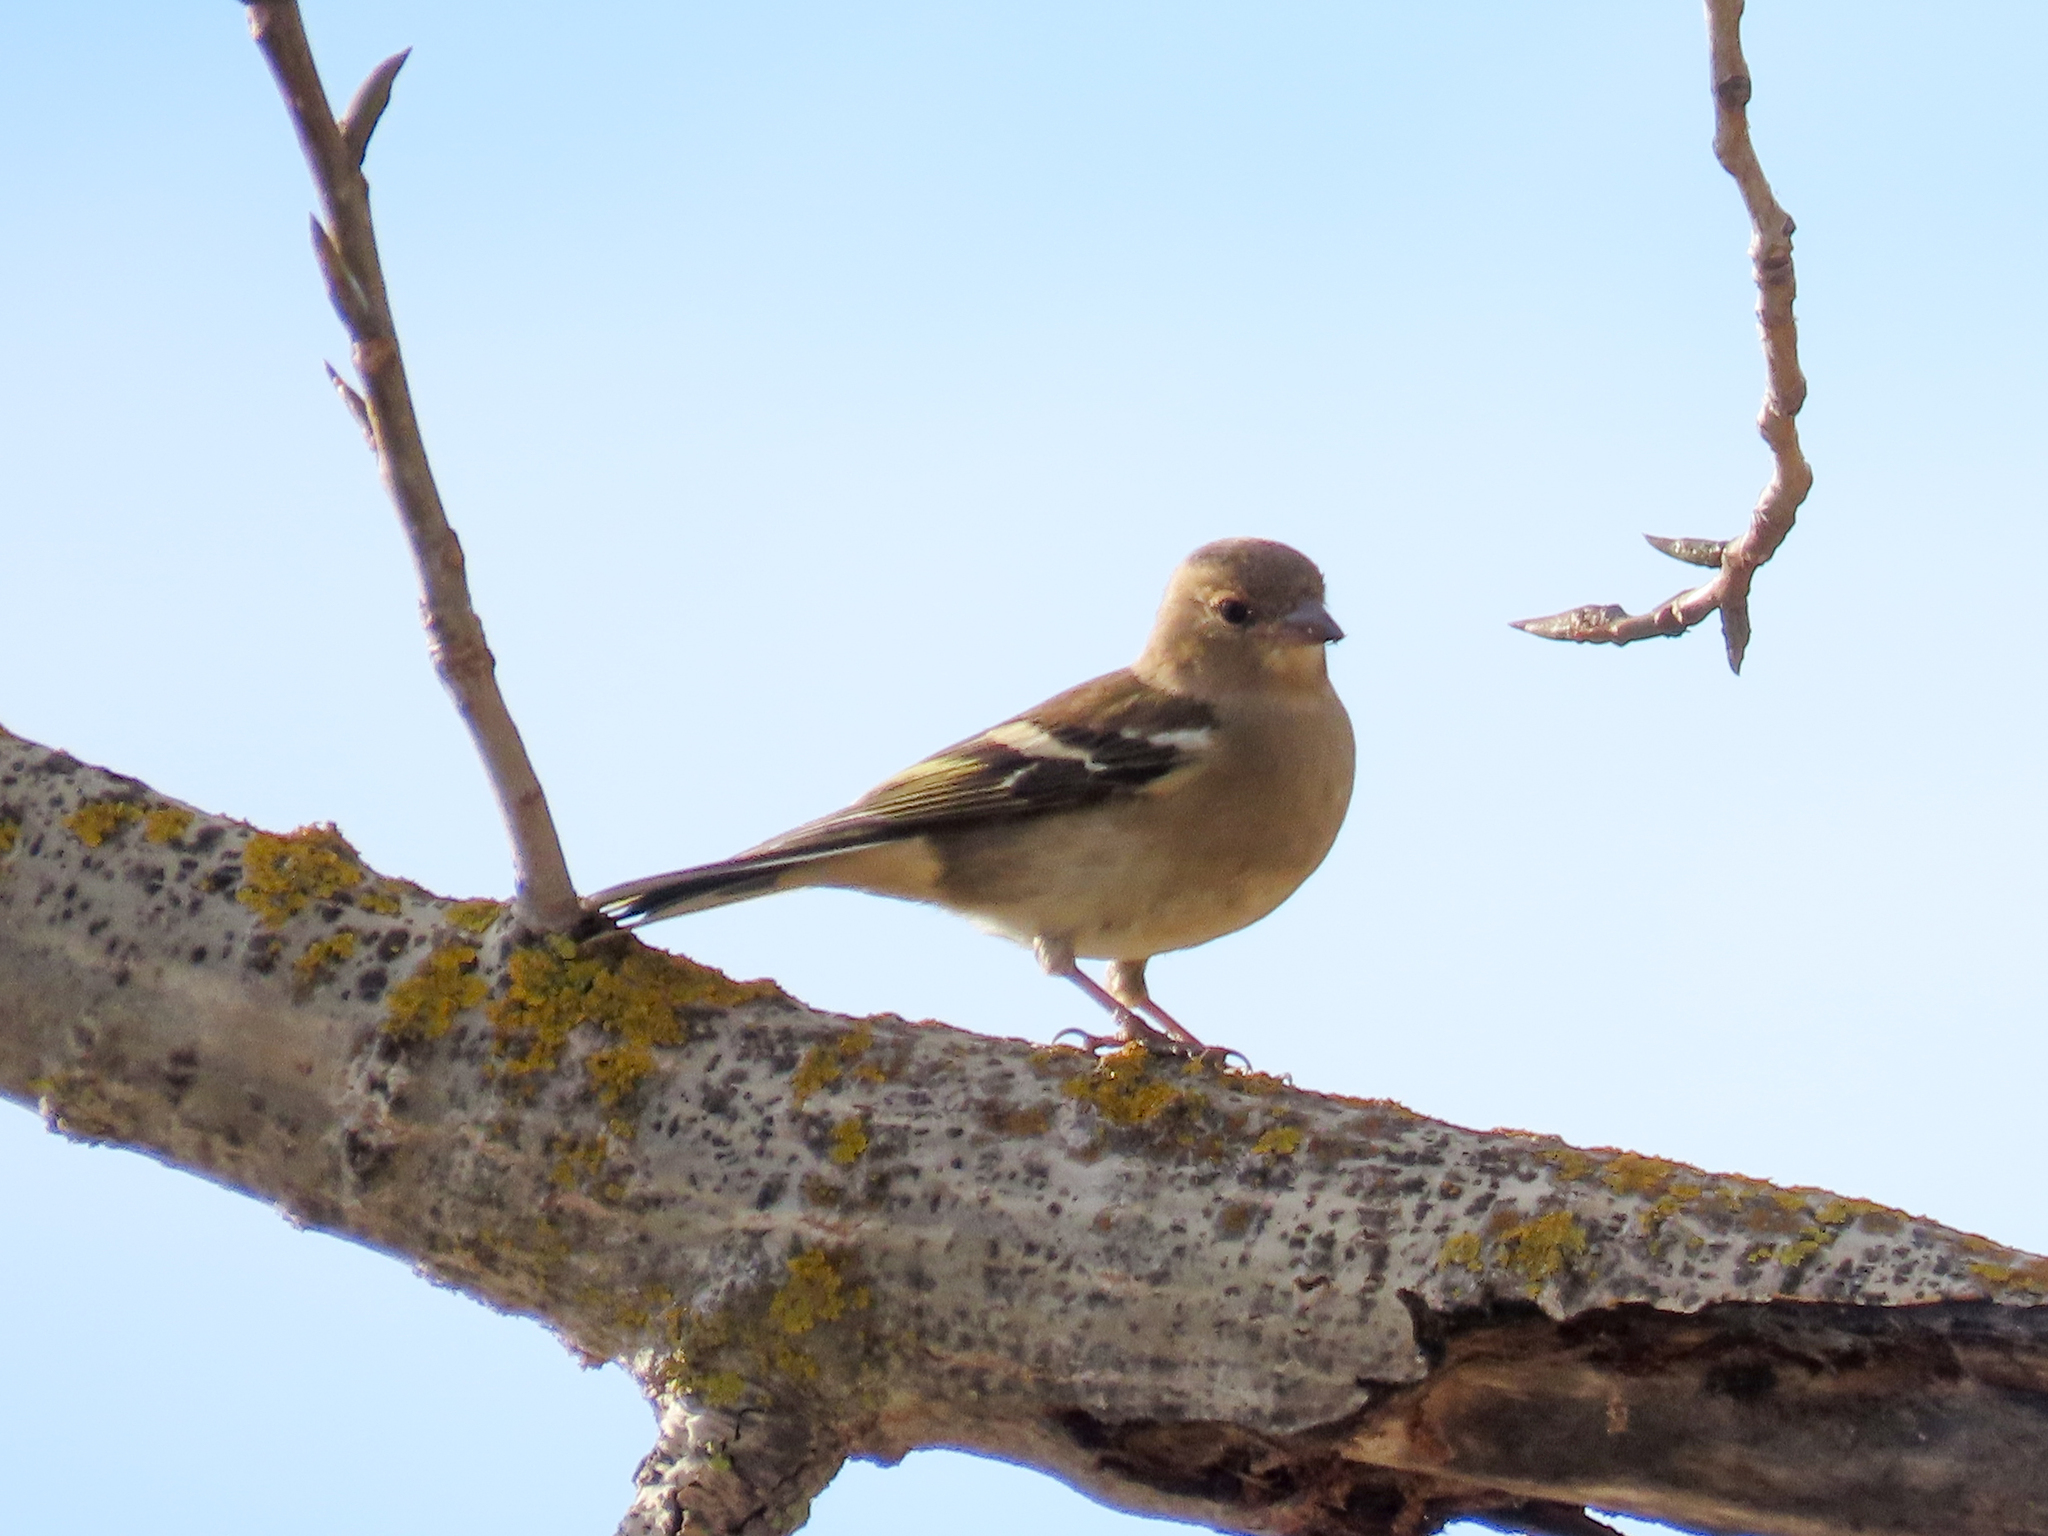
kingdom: Animalia
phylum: Chordata
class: Aves
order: Passeriformes
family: Fringillidae
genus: Fringilla
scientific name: Fringilla coelebs
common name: Common chaffinch
